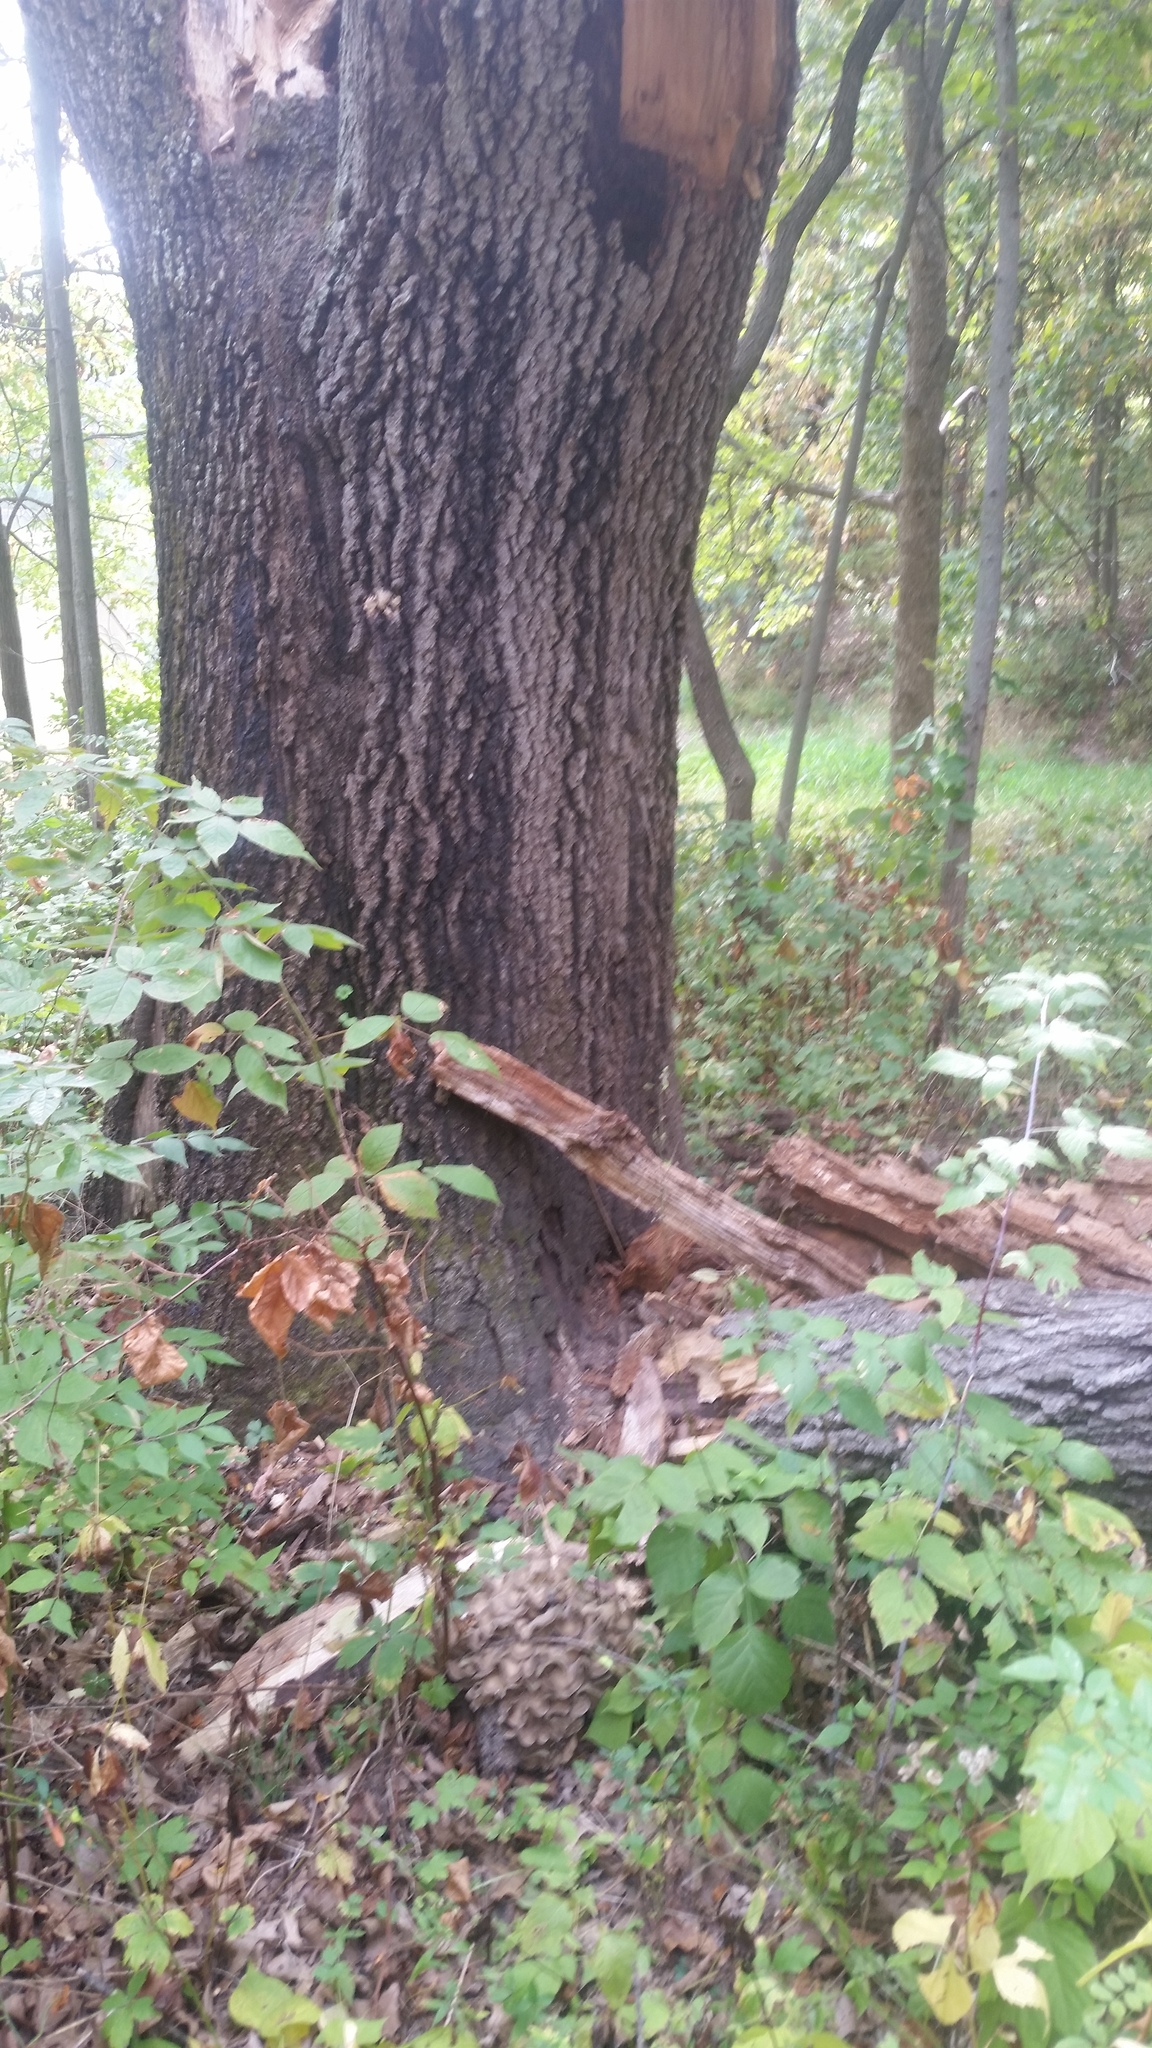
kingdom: Fungi
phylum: Basidiomycota
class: Agaricomycetes
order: Polyporales
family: Grifolaceae
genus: Grifola
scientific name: Grifola frondosa
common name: Hen of the woods
